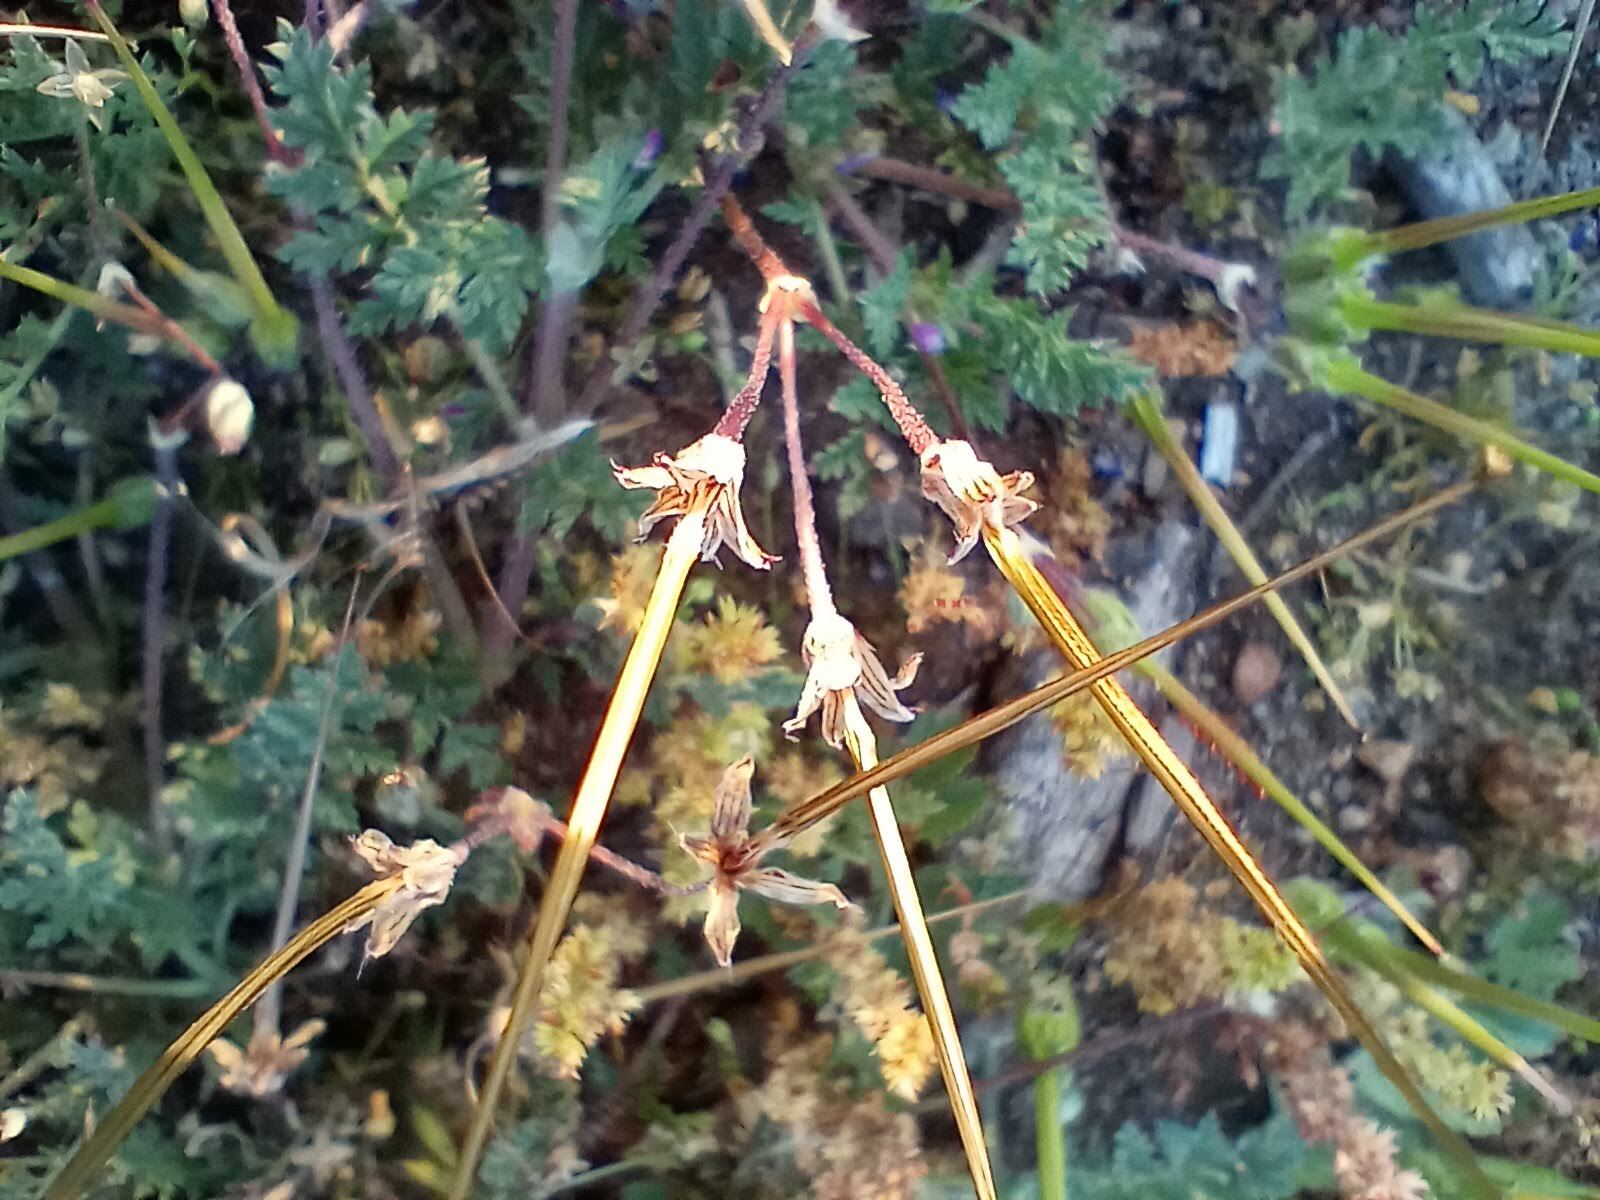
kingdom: Plantae
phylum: Tracheophyta
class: Magnoliopsida
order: Geraniales
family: Geraniaceae
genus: Erodium
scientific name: Erodium cicutarium
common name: Common stork's-bill
